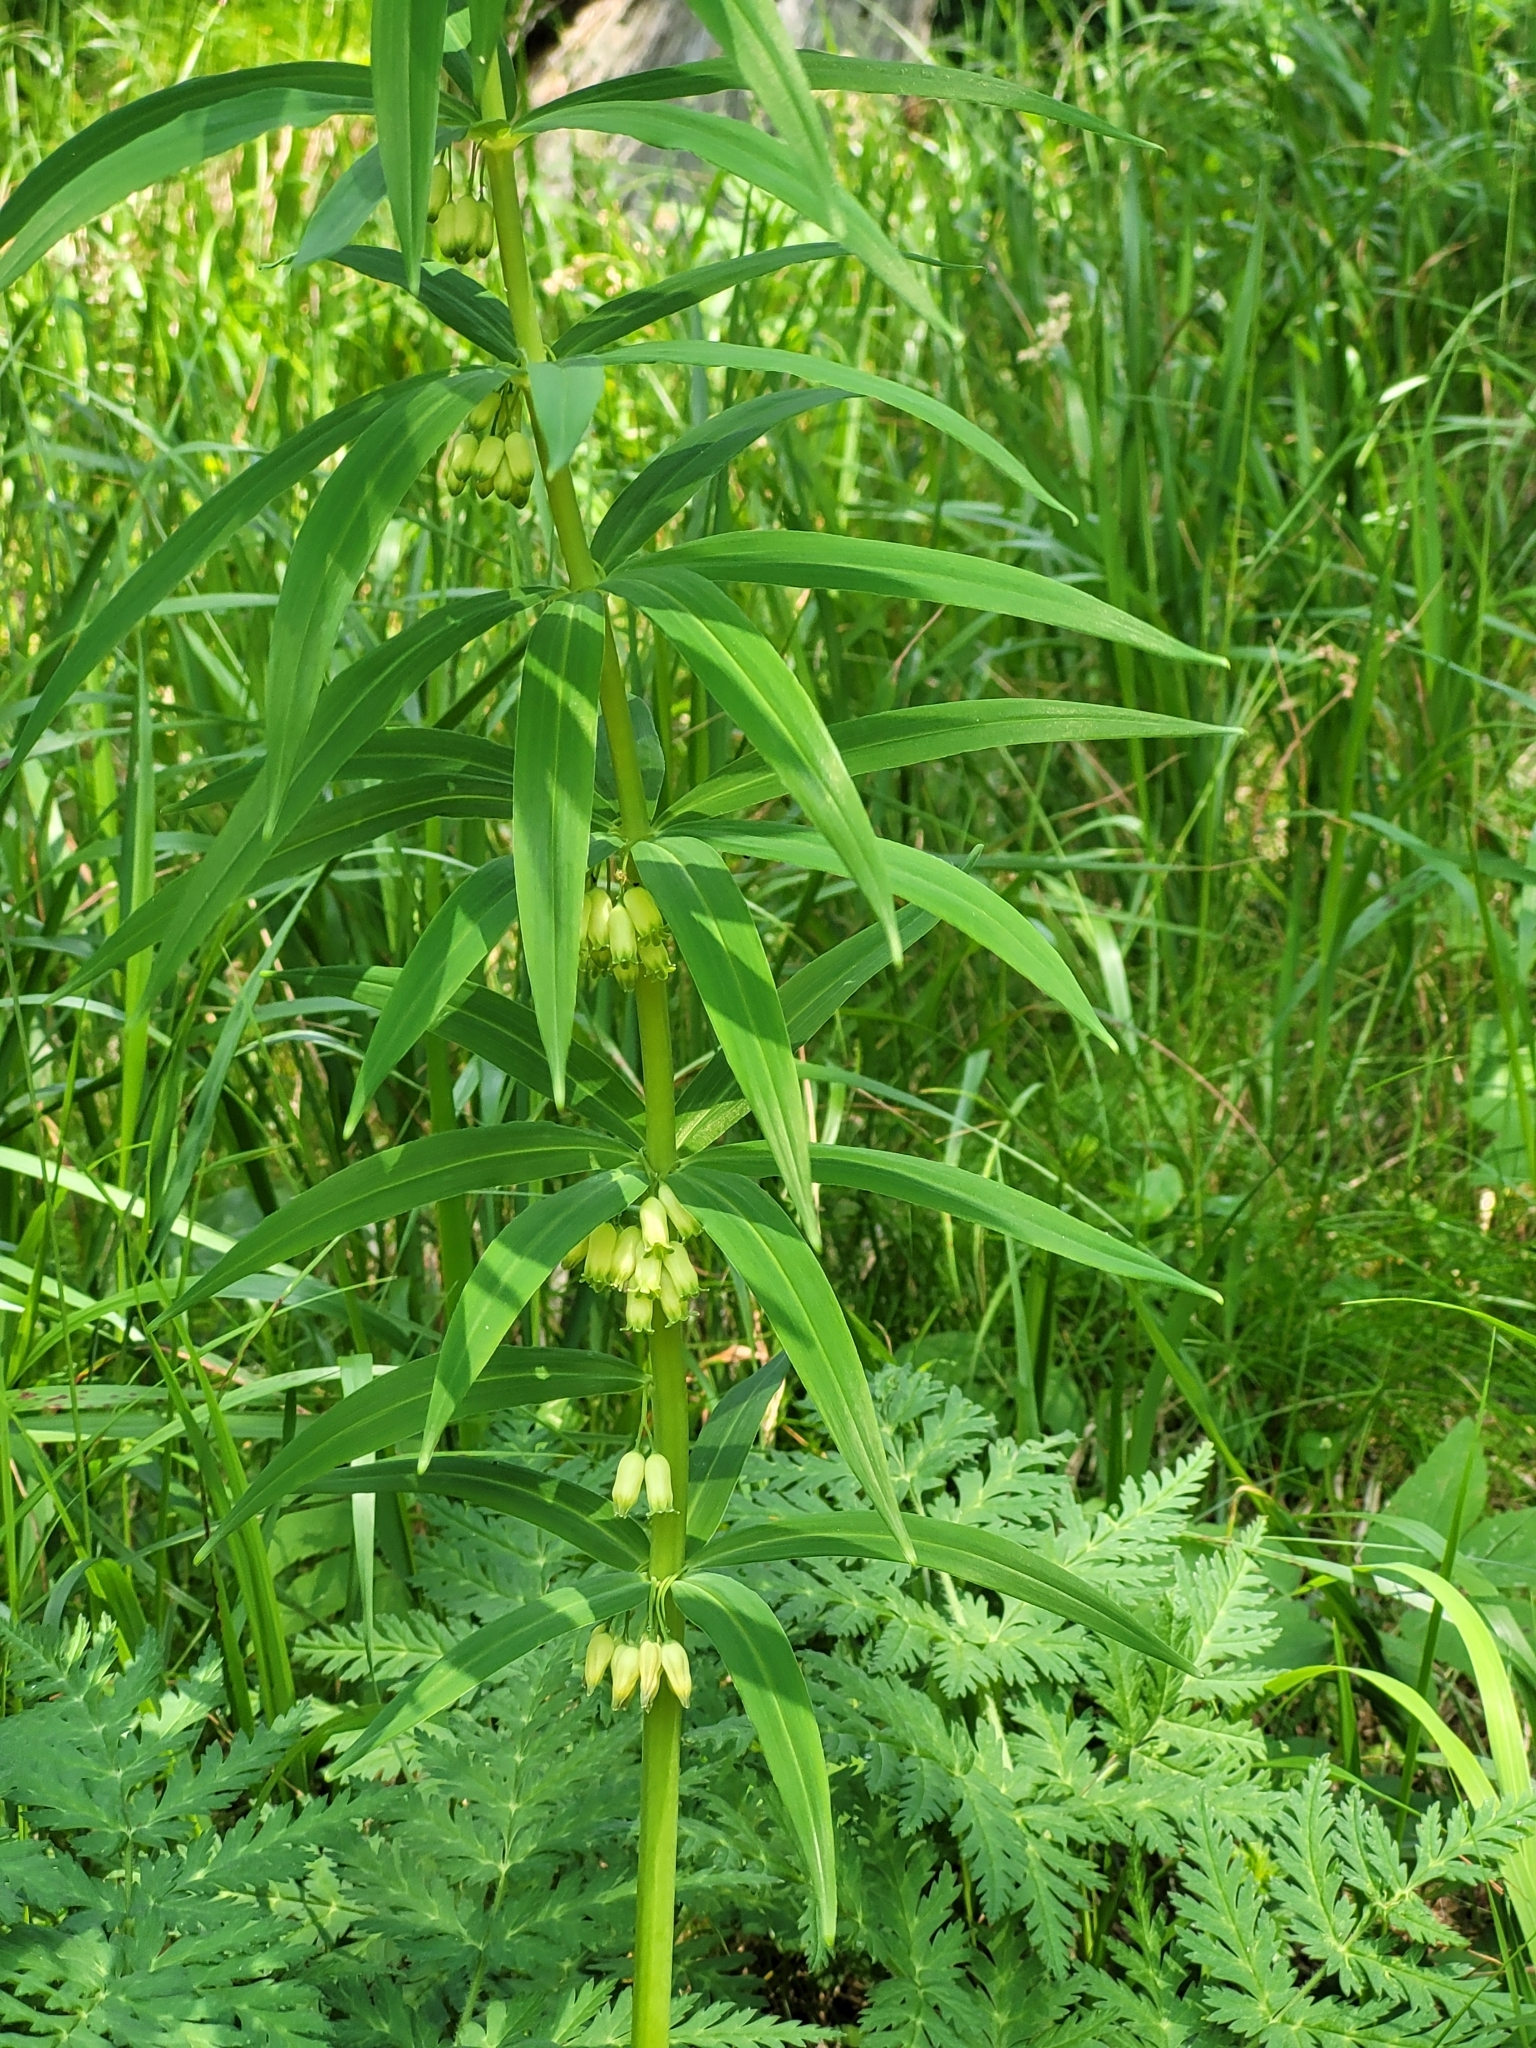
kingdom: Plantae
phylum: Tracheophyta
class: Liliopsida
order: Asparagales
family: Asparagaceae
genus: Polygonatum
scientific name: Polygonatum verticillatum
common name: Whorled solomon's-seal
